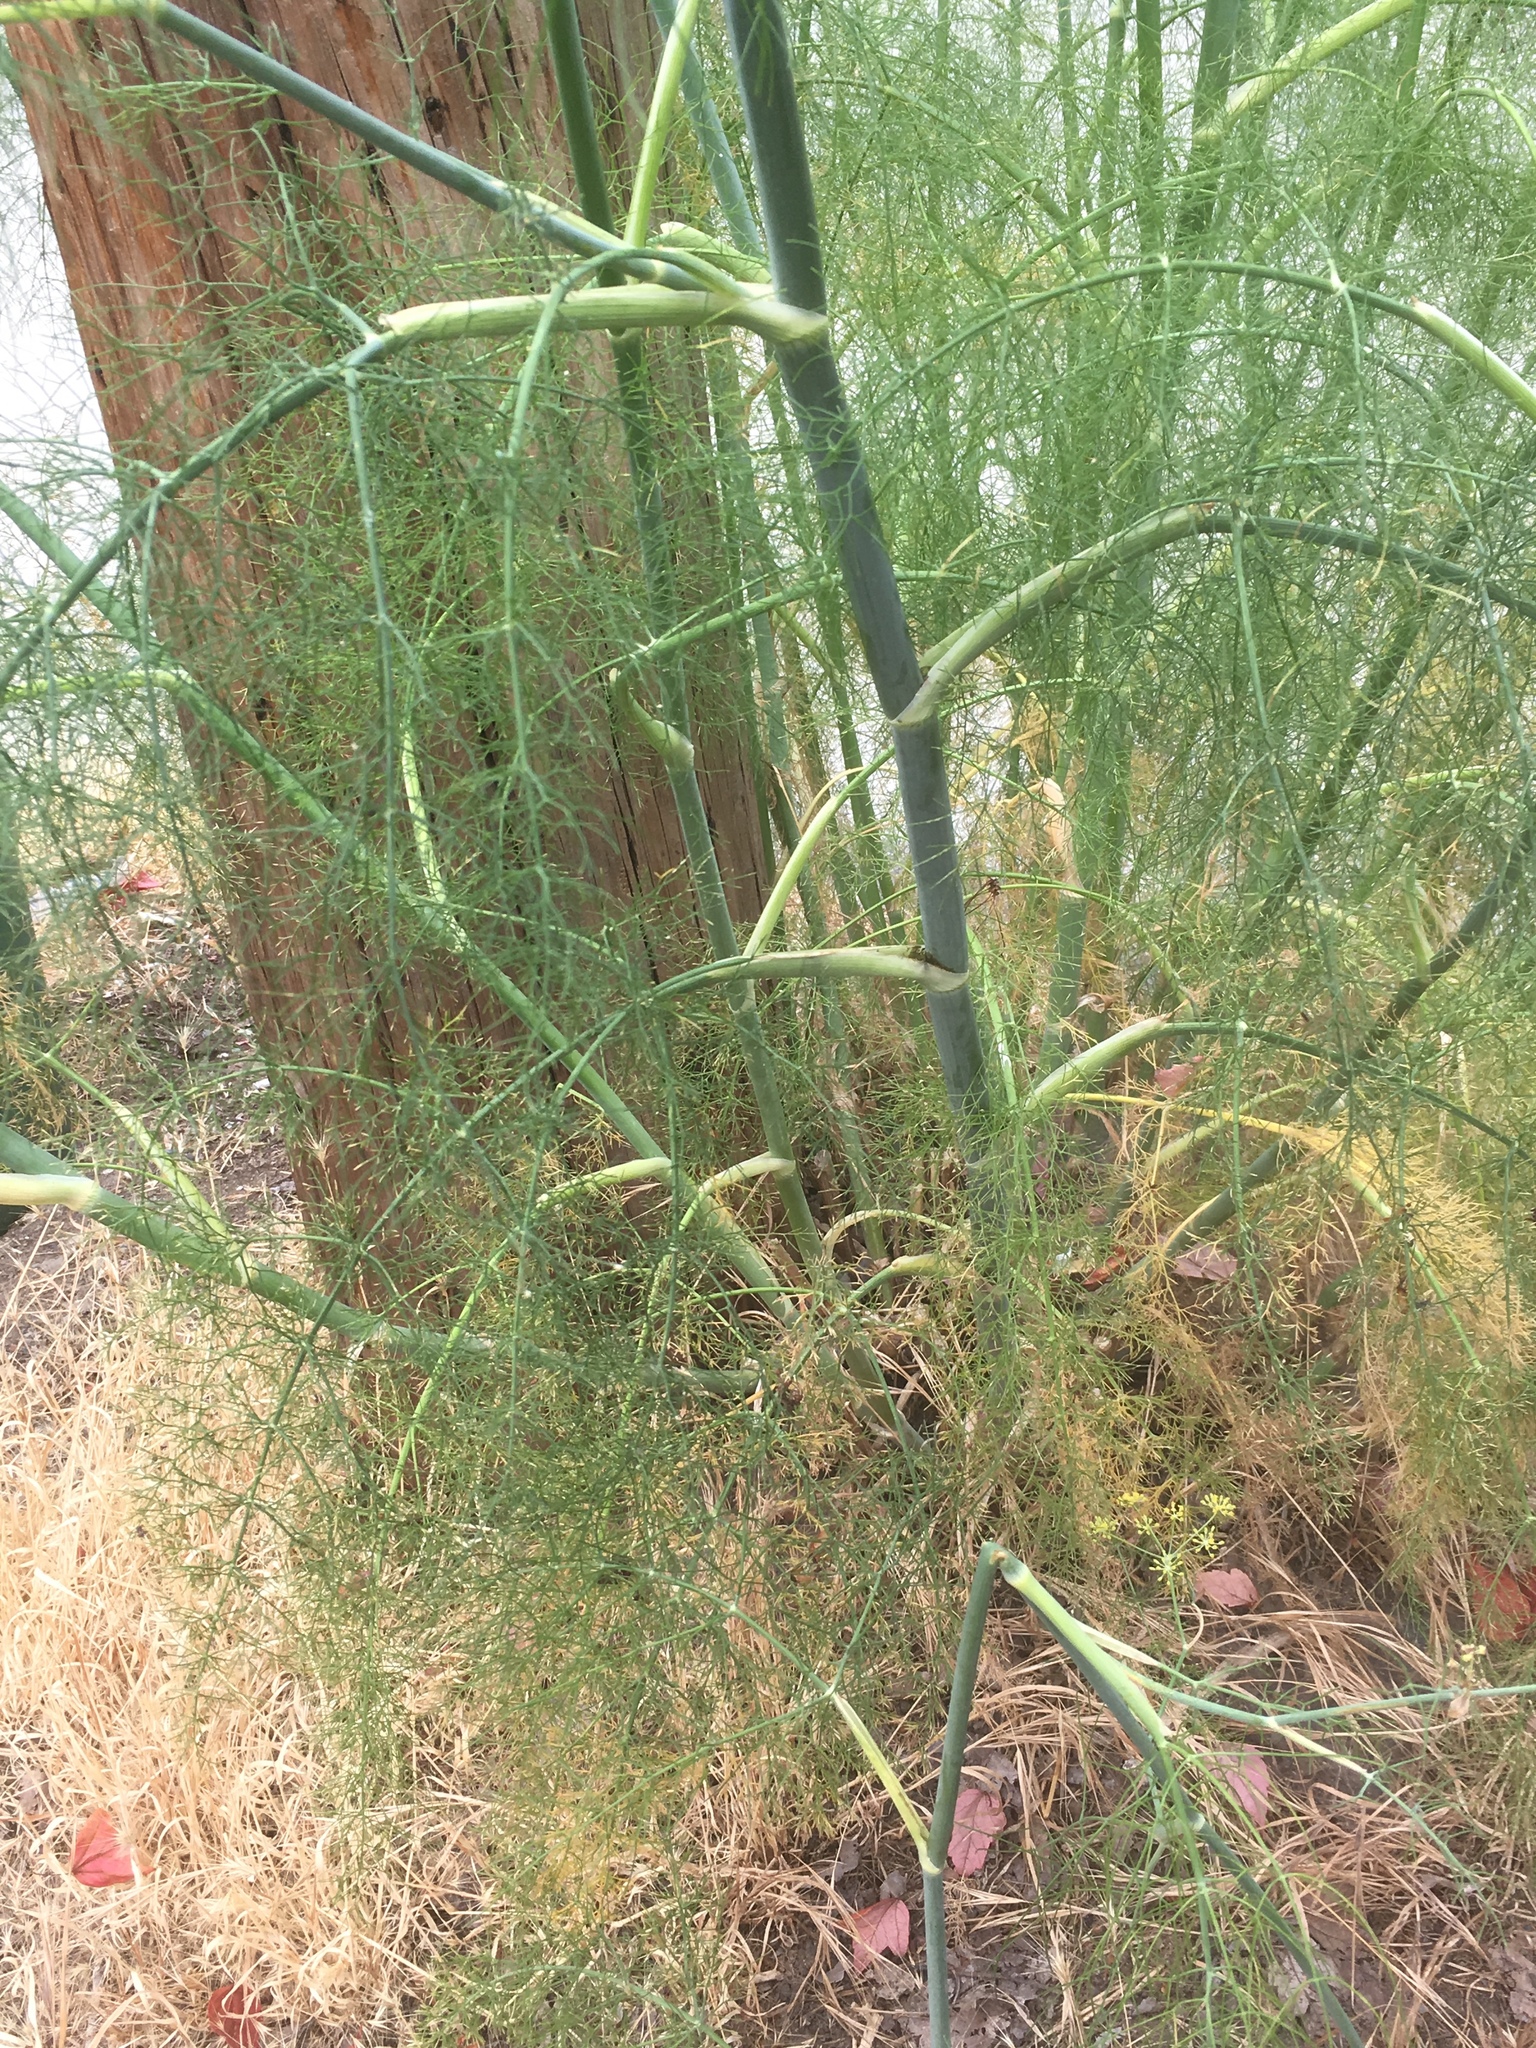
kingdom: Plantae
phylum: Tracheophyta
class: Magnoliopsida
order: Apiales
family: Apiaceae
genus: Foeniculum
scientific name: Foeniculum vulgare
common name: Fennel
